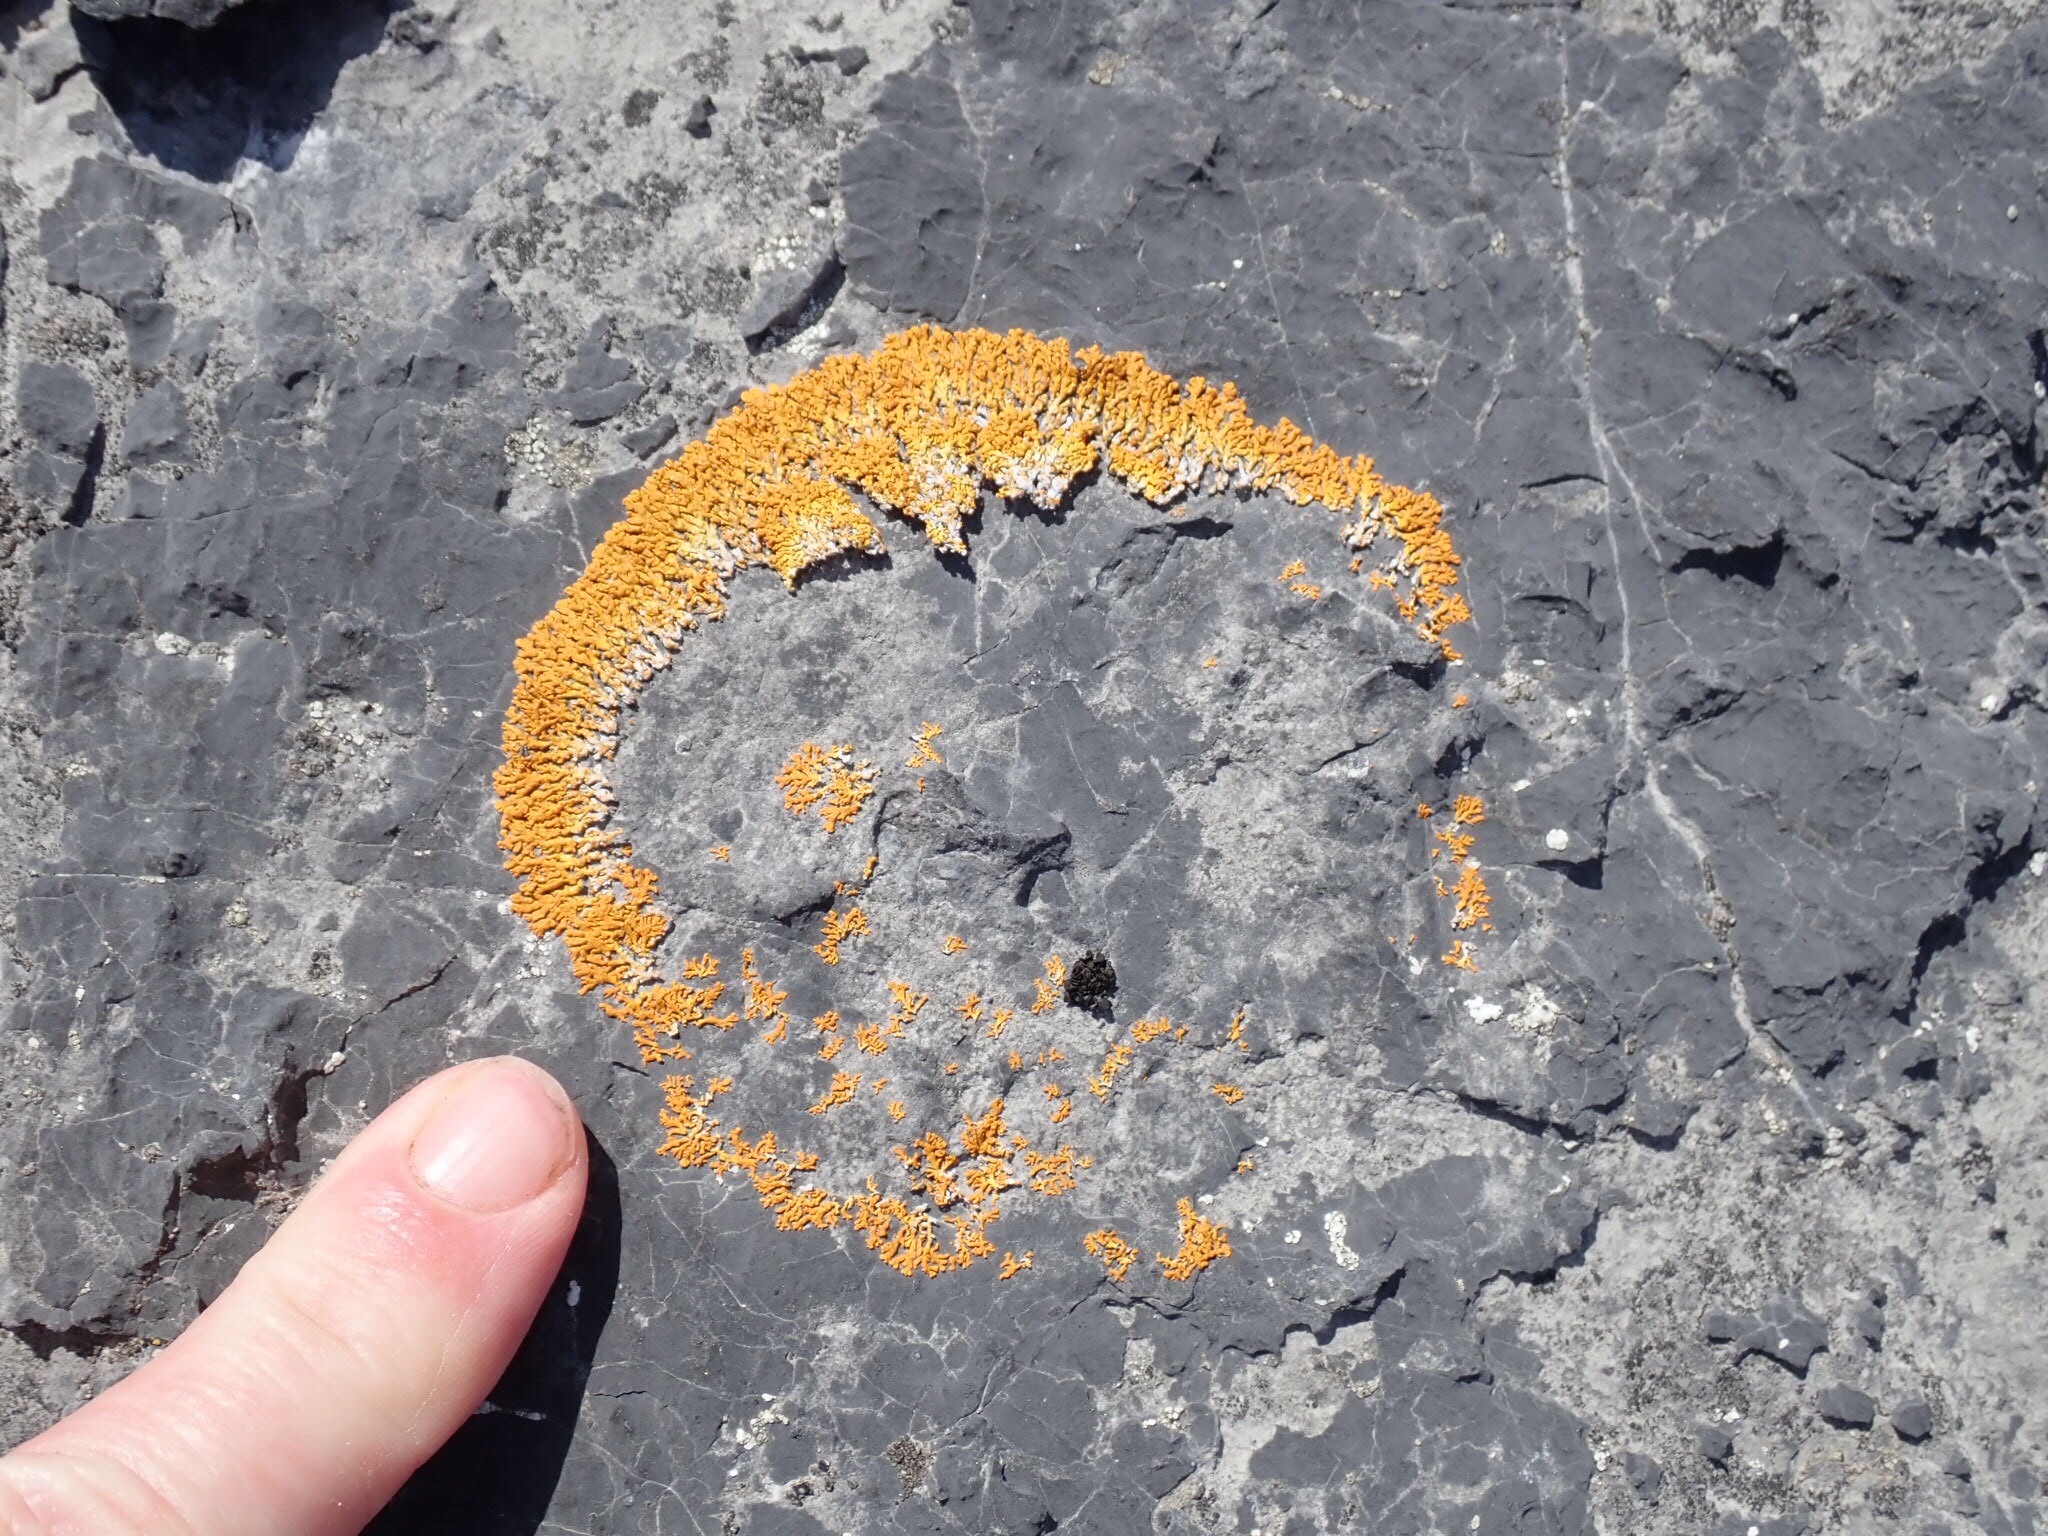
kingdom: Fungi
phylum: Ascomycota
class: Lecanoromycetes
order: Teloschistales
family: Teloschistaceae
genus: Xanthoria
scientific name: Xanthoria elegans
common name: Elegant sunburst lichen
